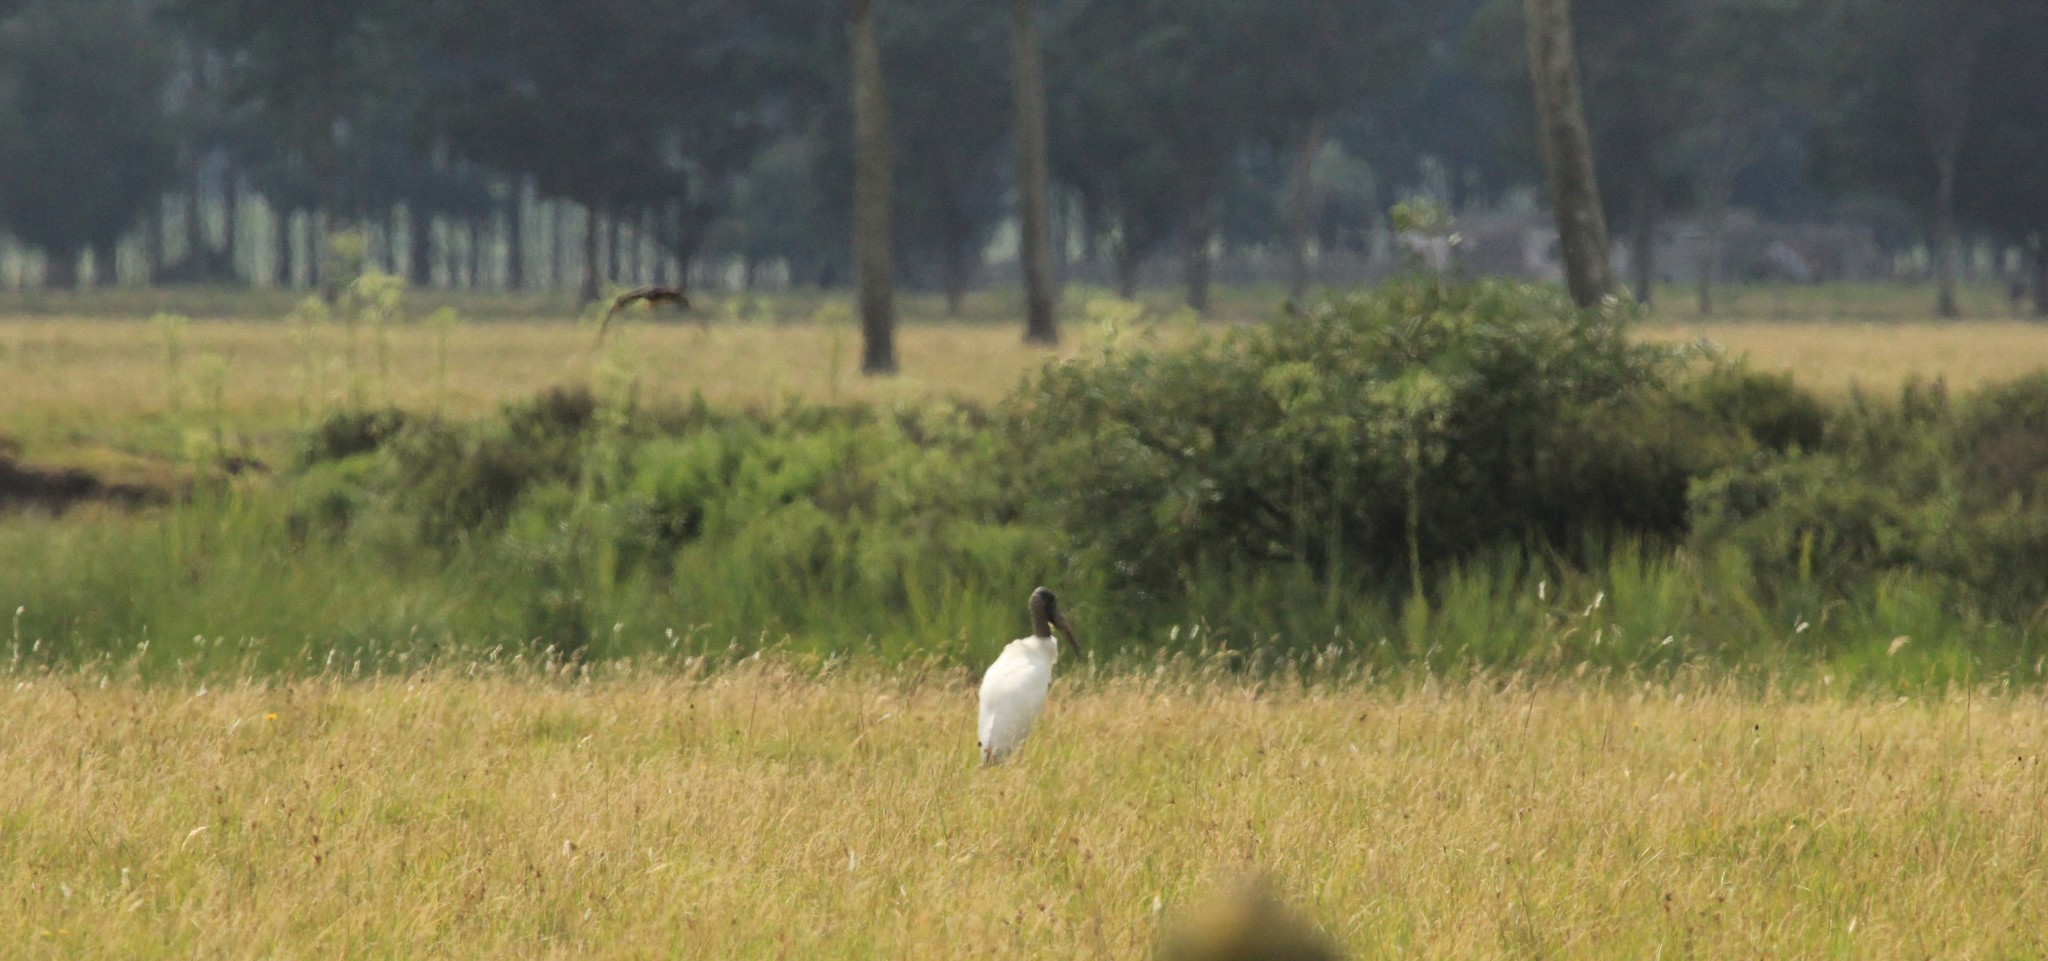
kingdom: Animalia
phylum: Chordata
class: Aves
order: Ciconiiformes
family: Ciconiidae
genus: Mycteria
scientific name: Mycteria americana
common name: Wood stork
